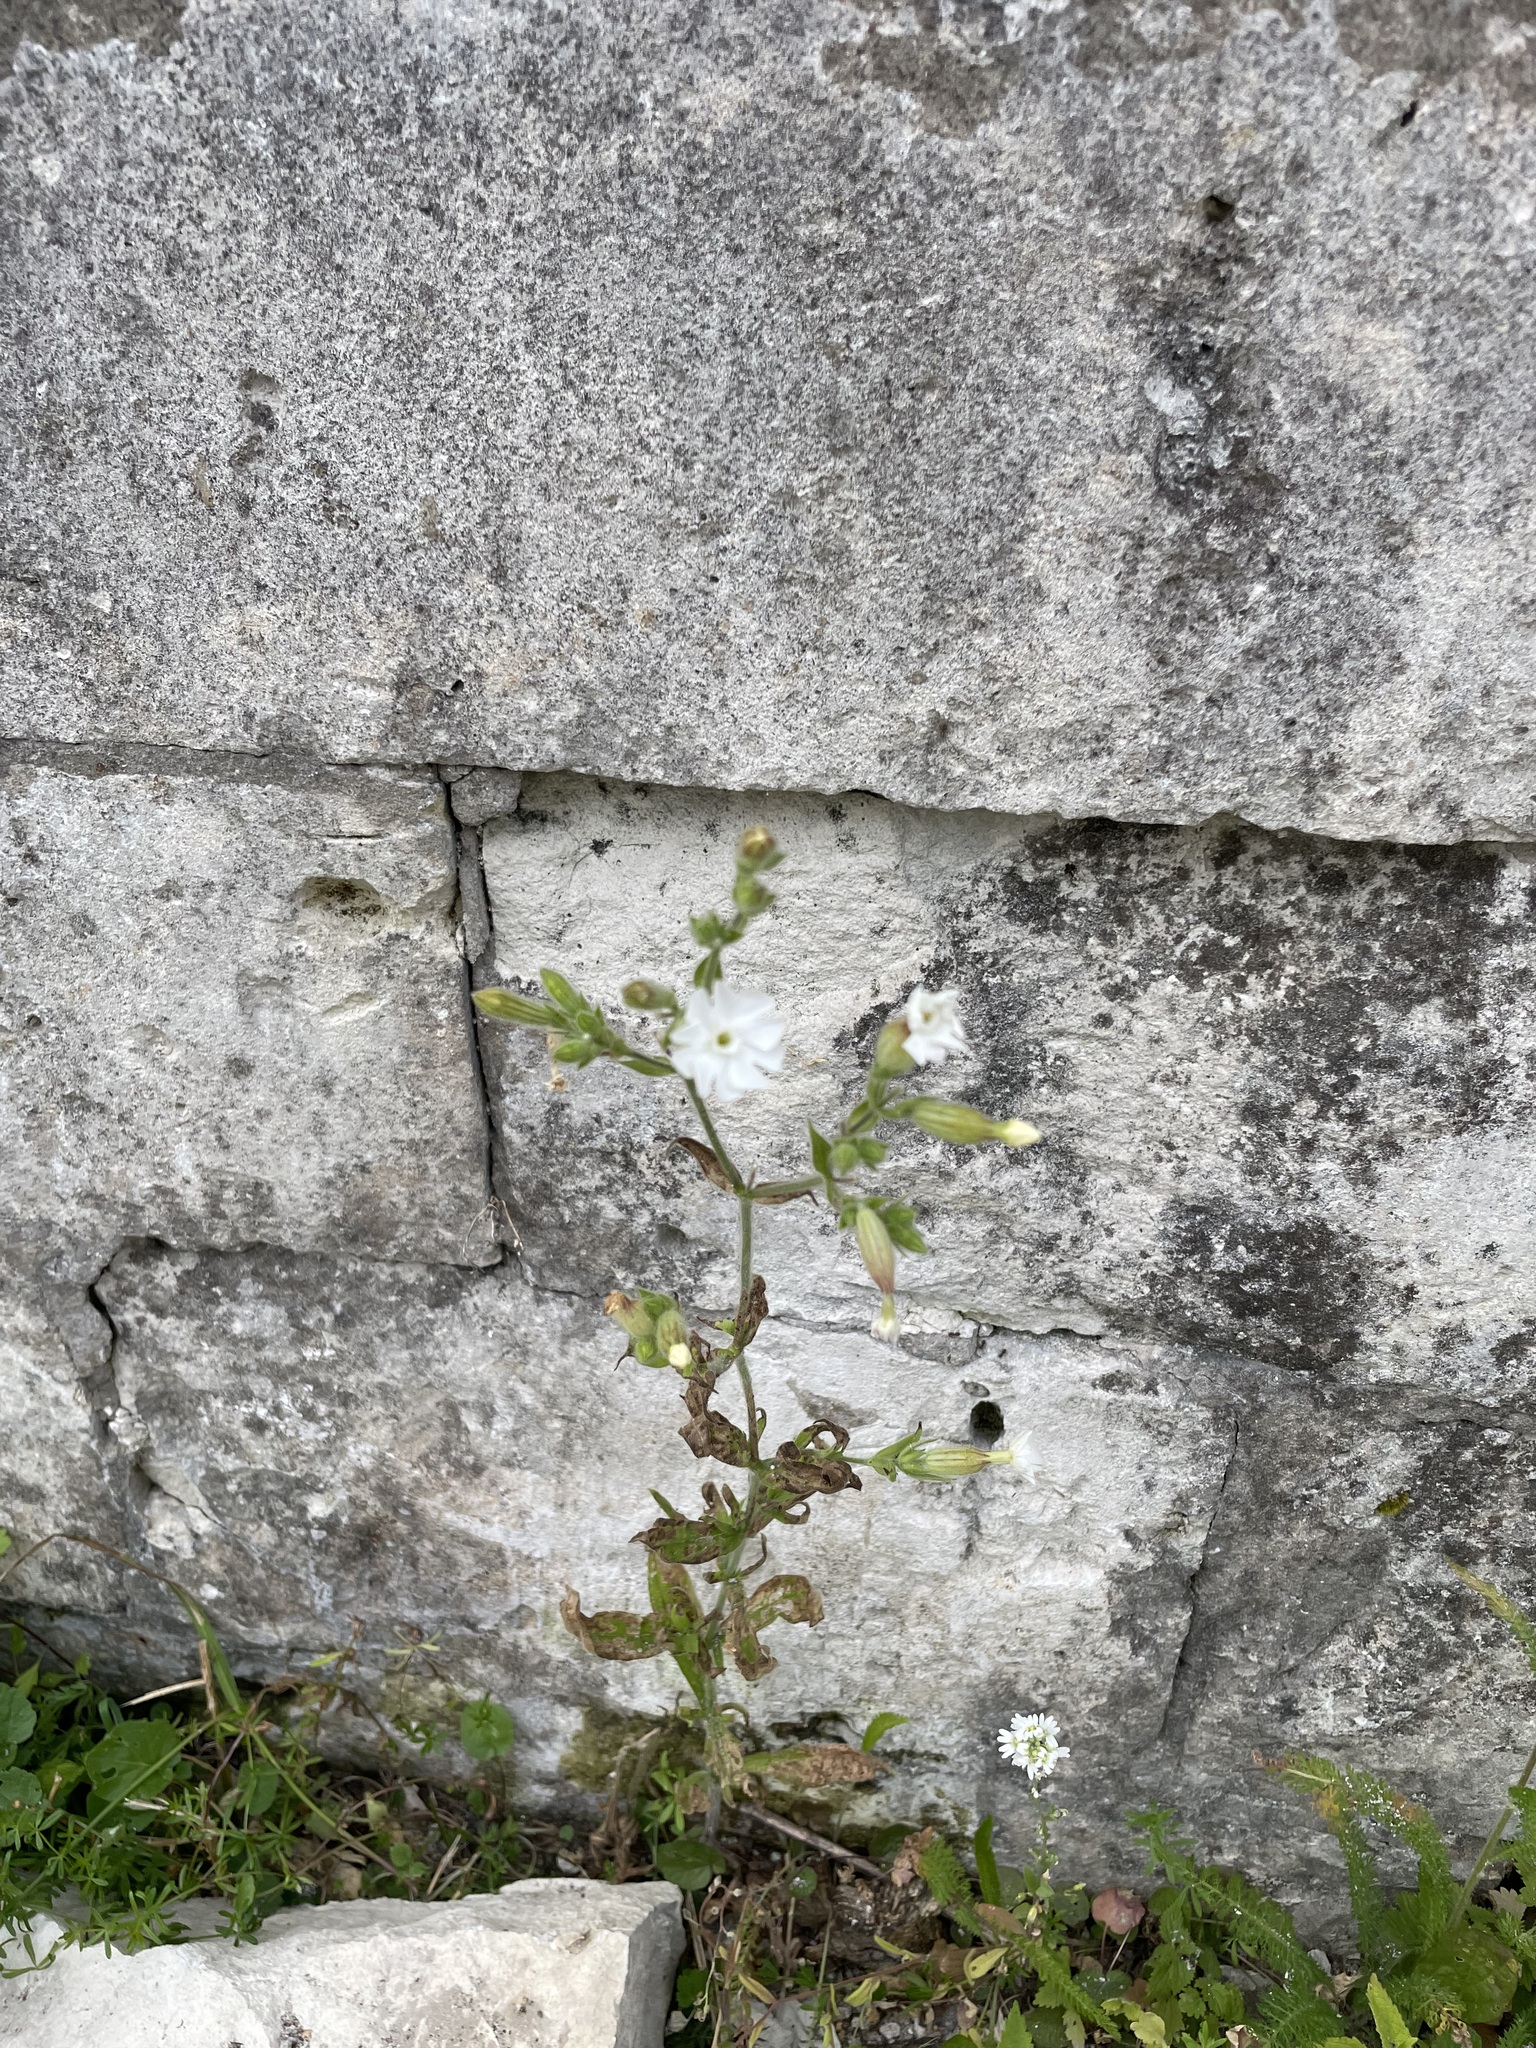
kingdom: Plantae
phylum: Tracheophyta
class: Magnoliopsida
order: Caryophyllales
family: Caryophyllaceae
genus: Silene
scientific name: Silene latifolia
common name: White campion
